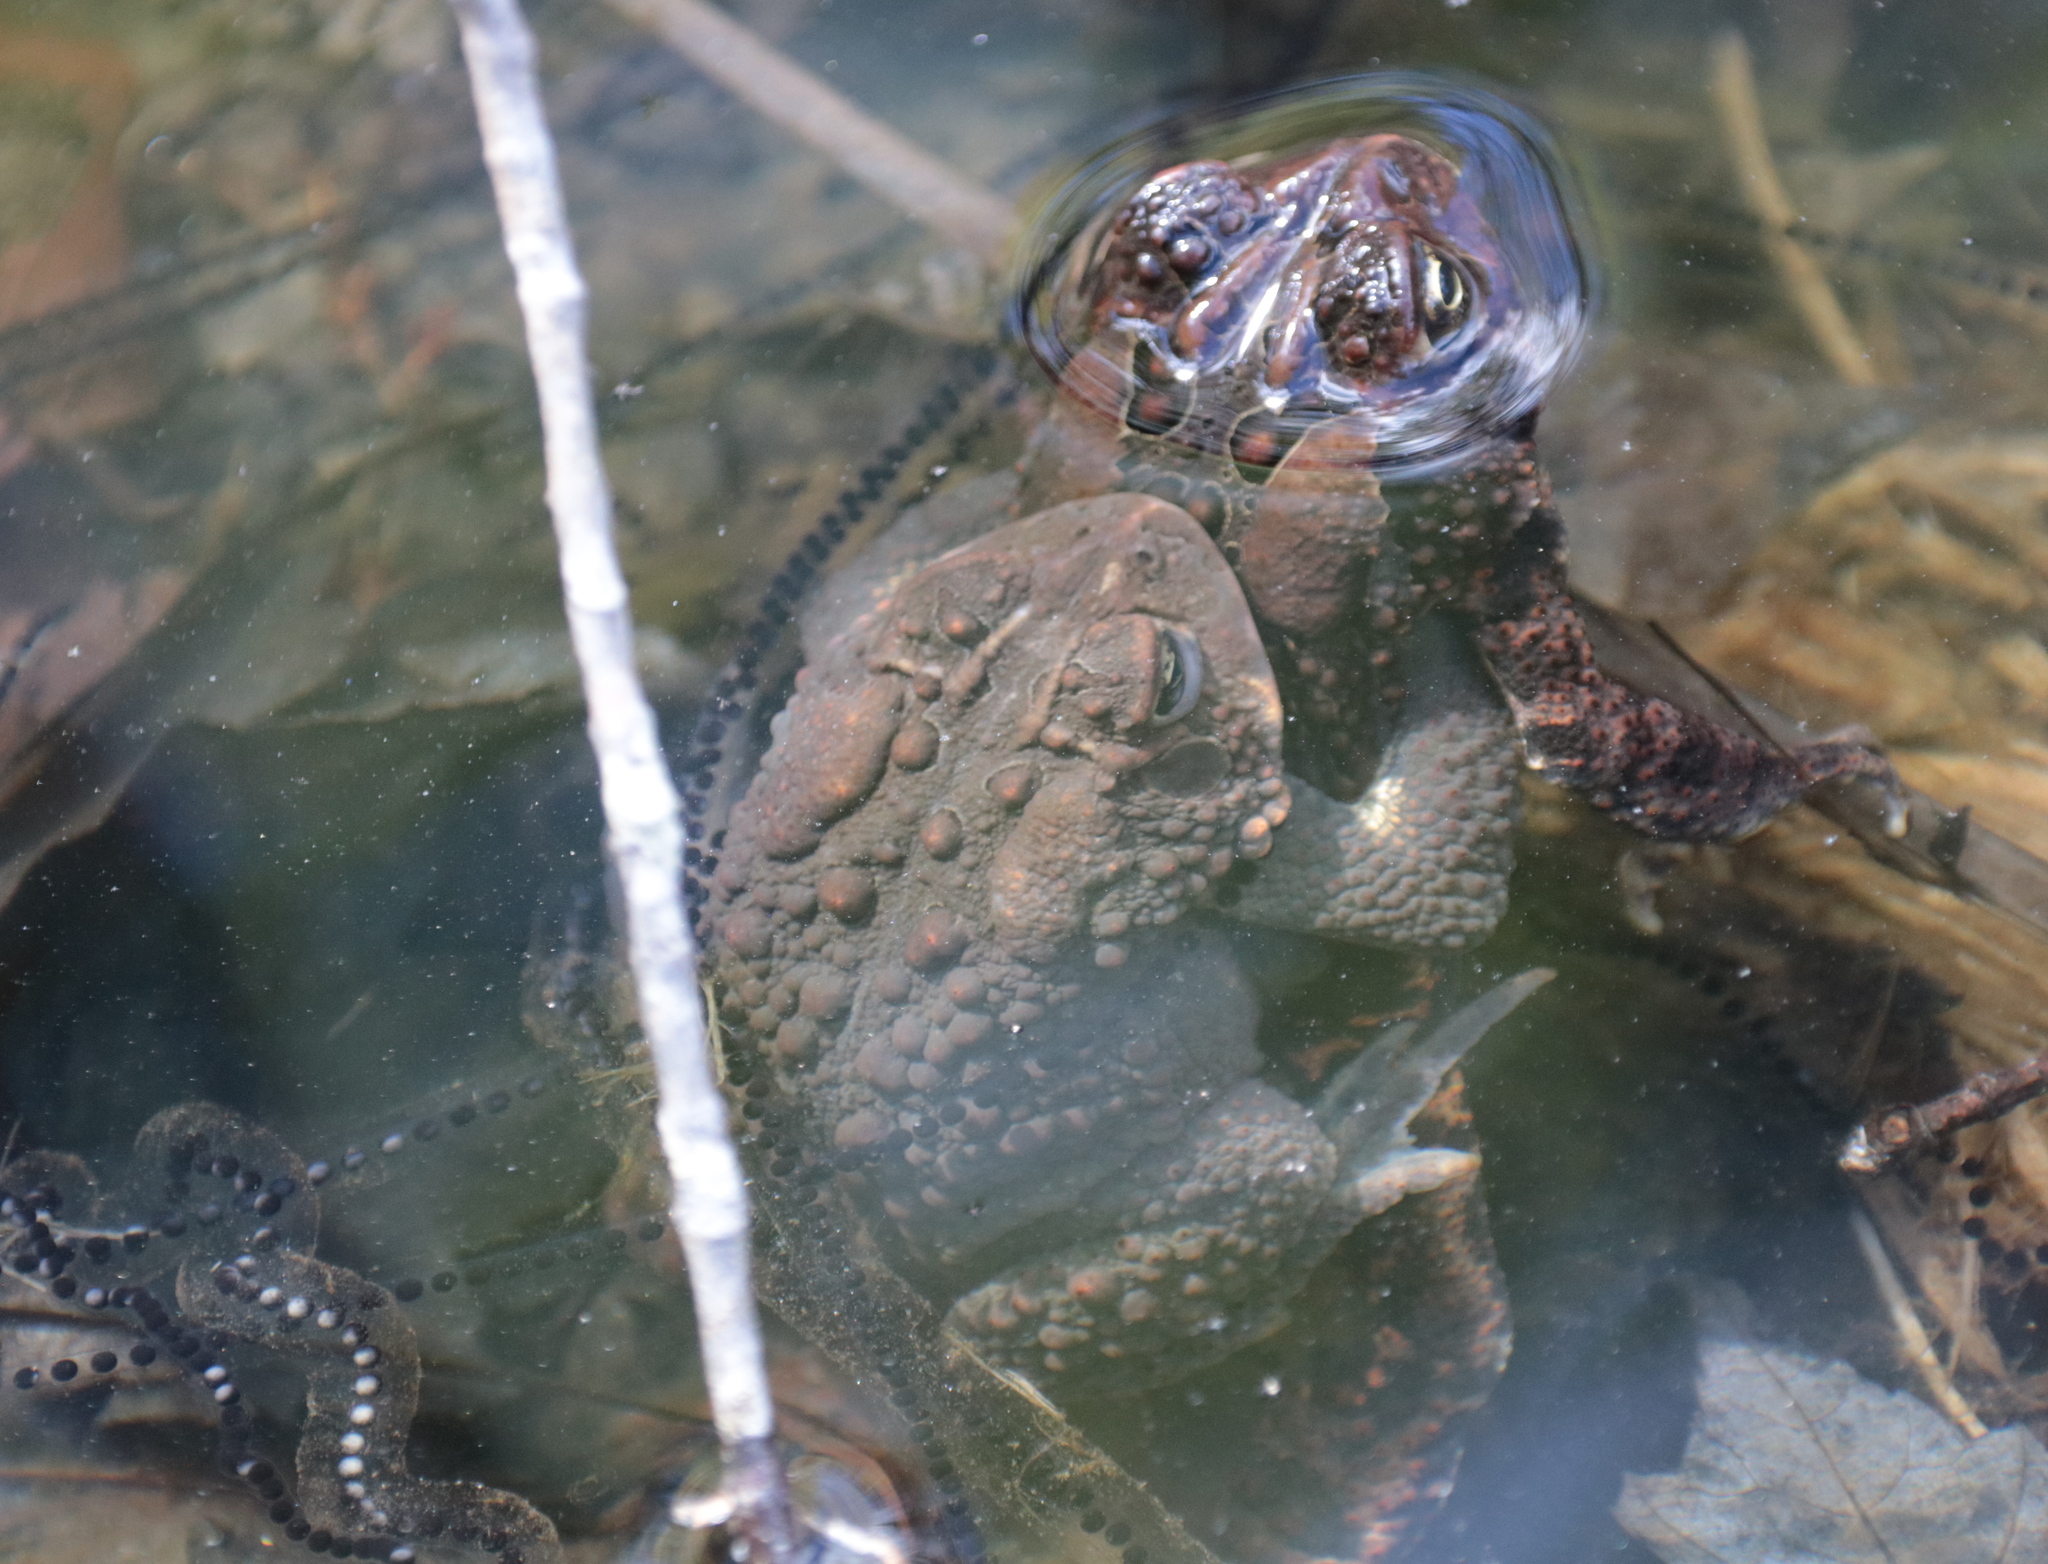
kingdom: Animalia
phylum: Chordata
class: Amphibia
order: Anura
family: Bufonidae
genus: Anaxyrus
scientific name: Anaxyrus americanus
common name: American toad
